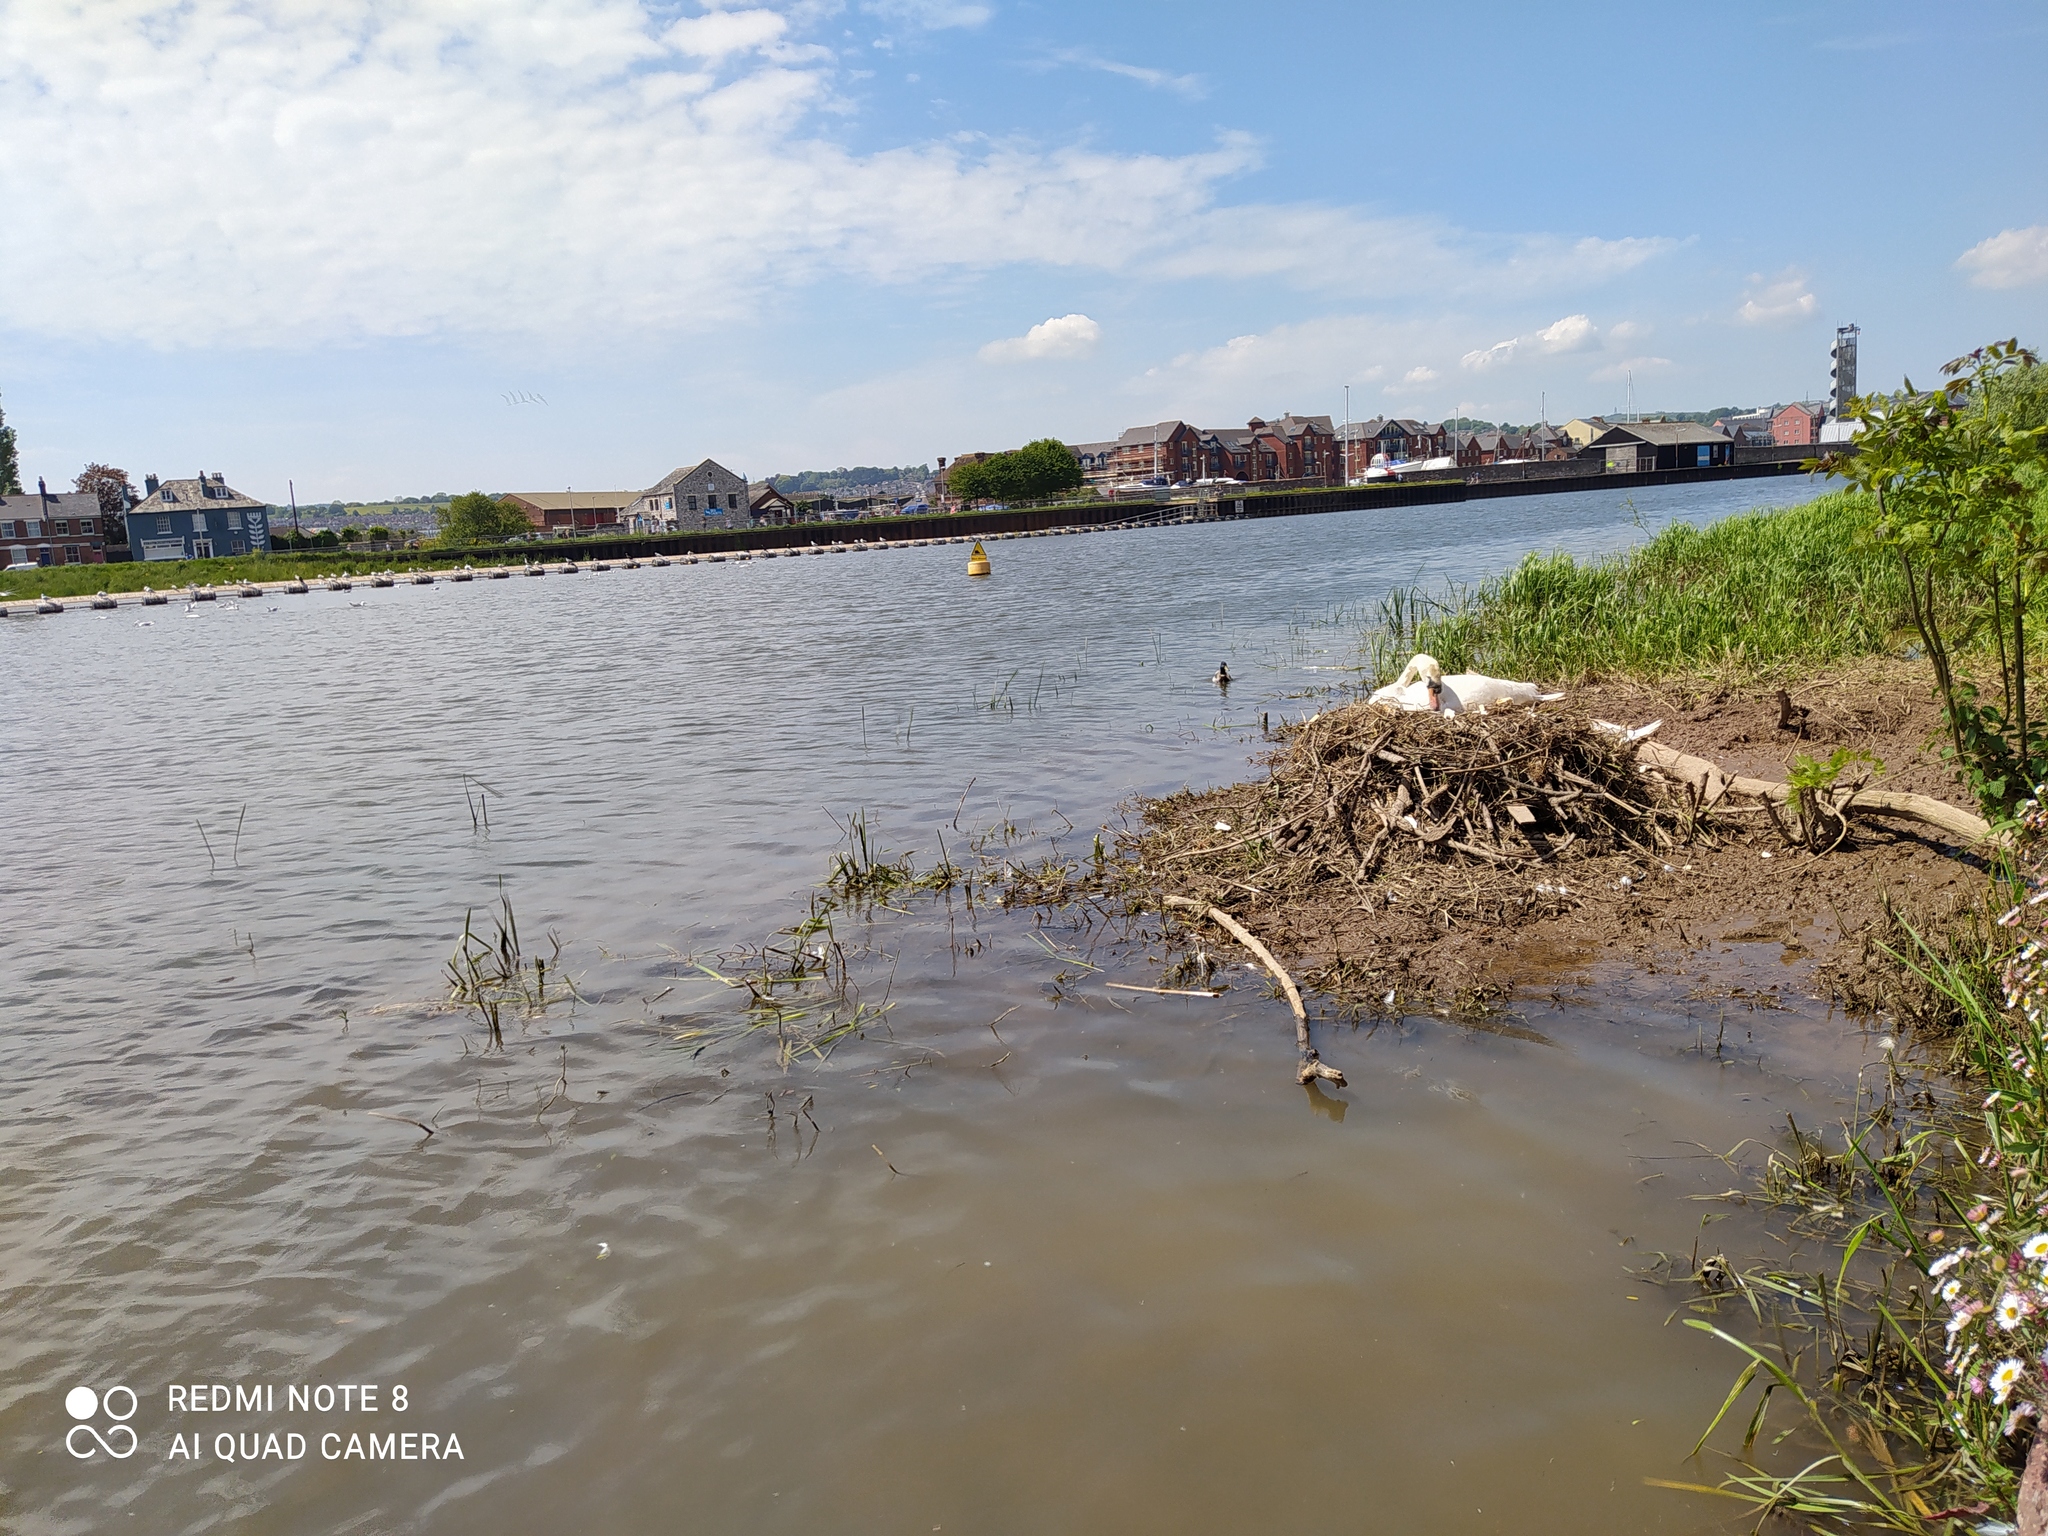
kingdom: Animalia
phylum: Chordata
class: Aves
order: Anseriformes
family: Anatidae
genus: Cygnus
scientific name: Cygnus olor
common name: Mute swan
